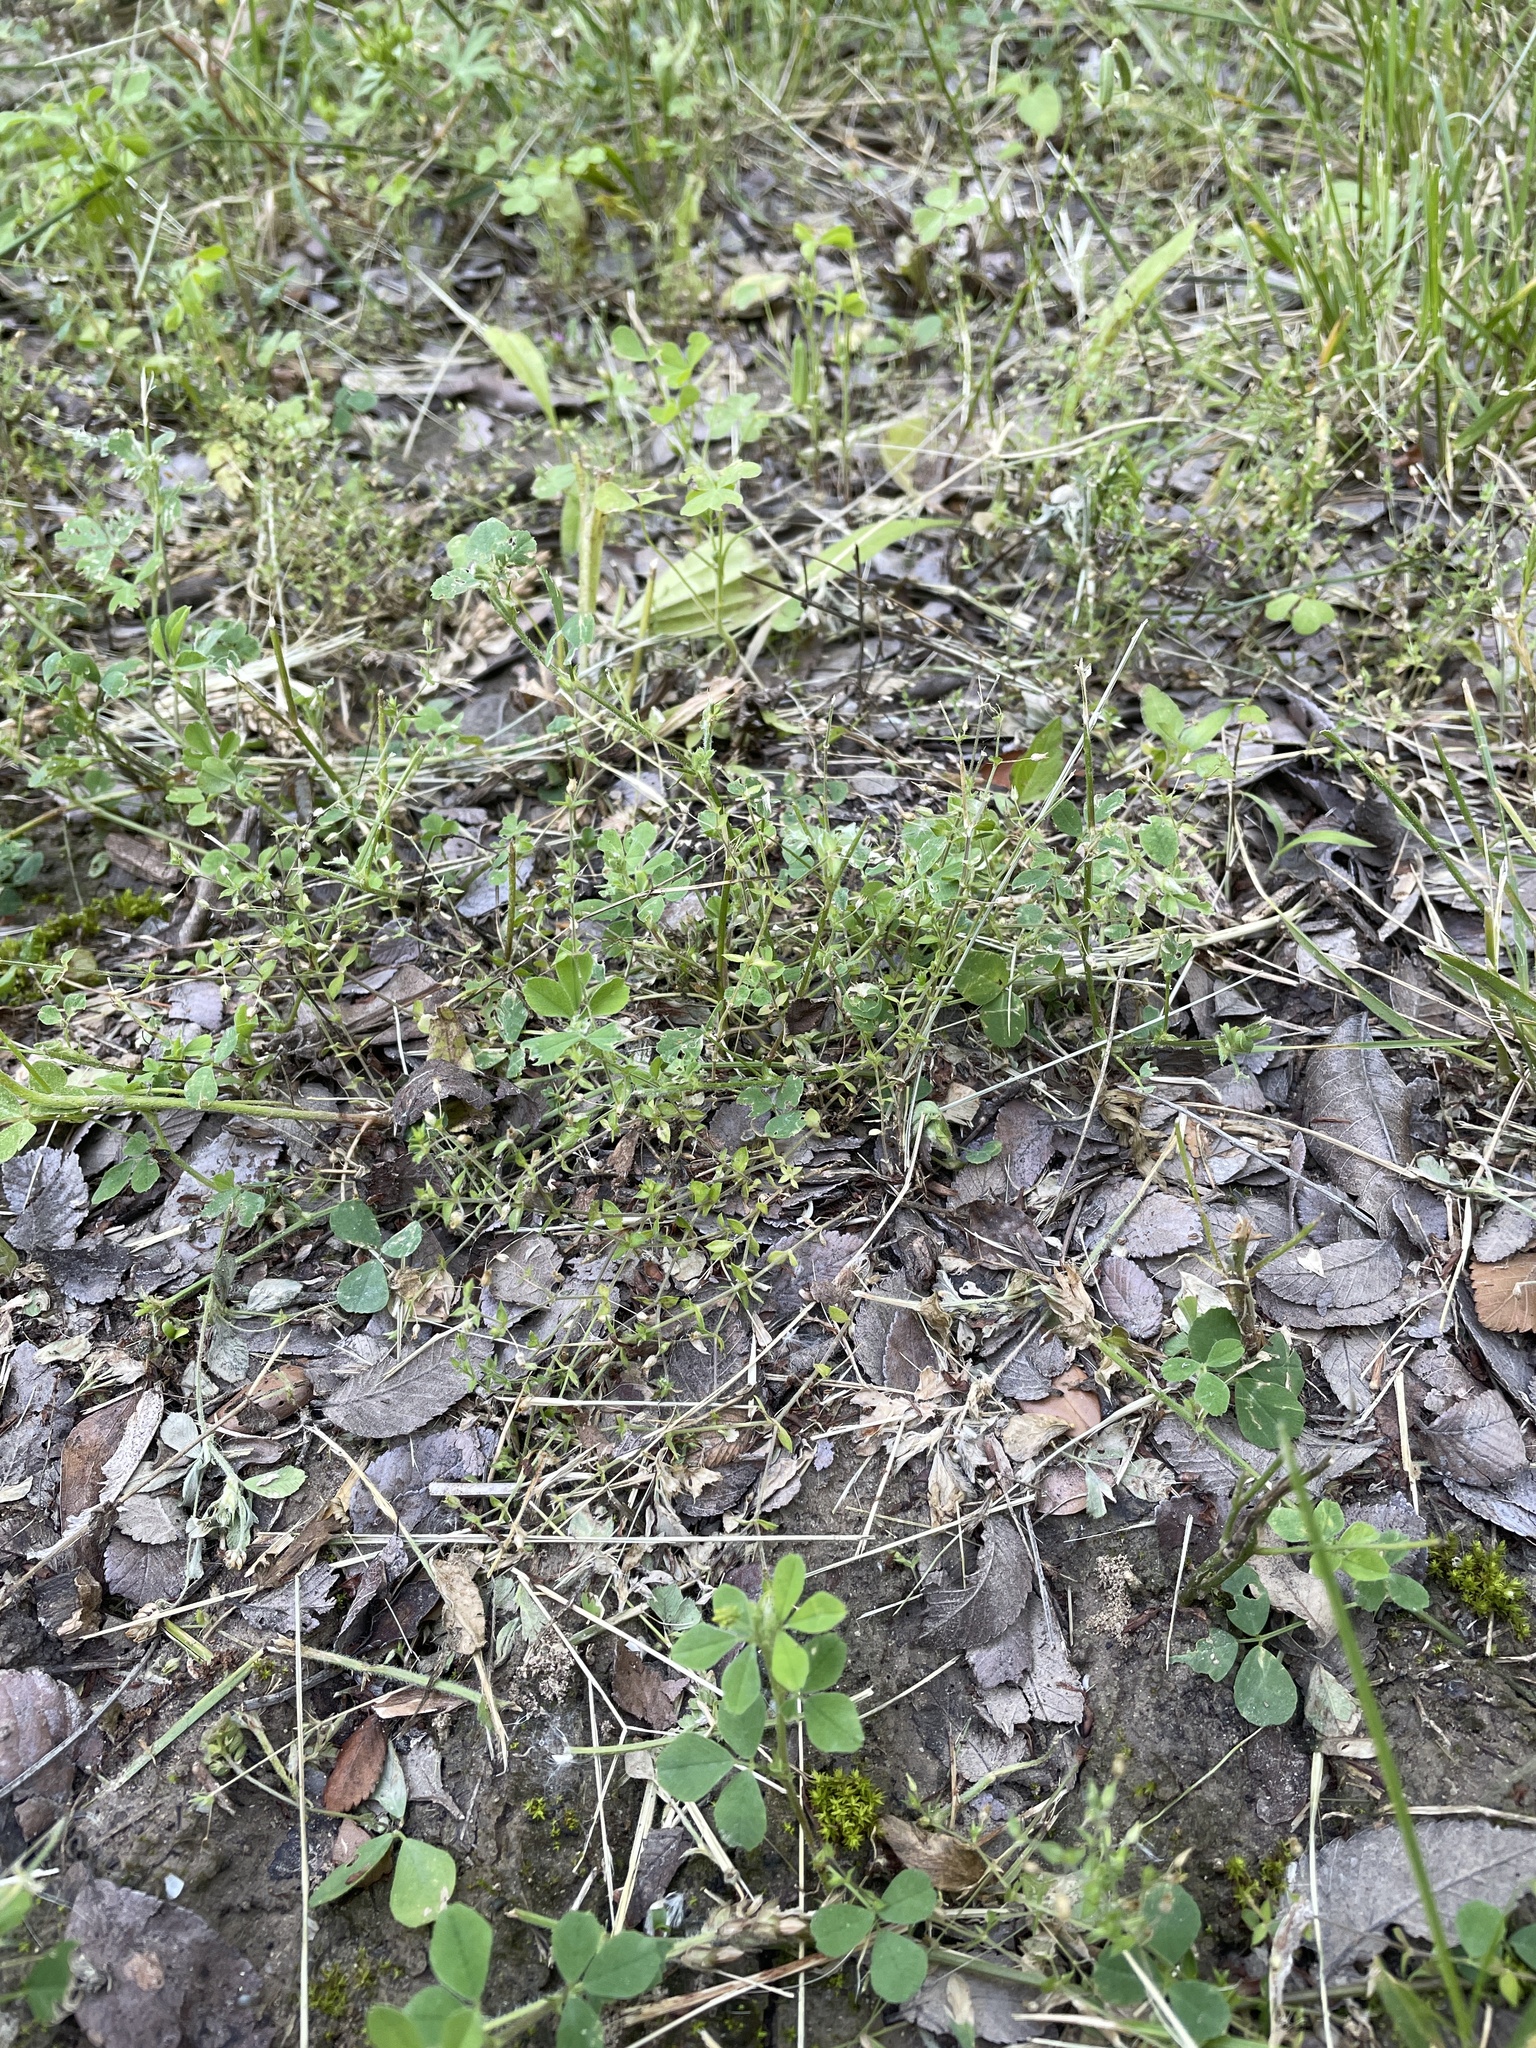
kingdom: Plantae
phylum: Tracheophyta
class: Magnoliopsida
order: Caryophyllales
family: Caryophyllaceae
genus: Arenaria
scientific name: Arenaria serpyllifolia
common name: Thyme-leaved sandwort
